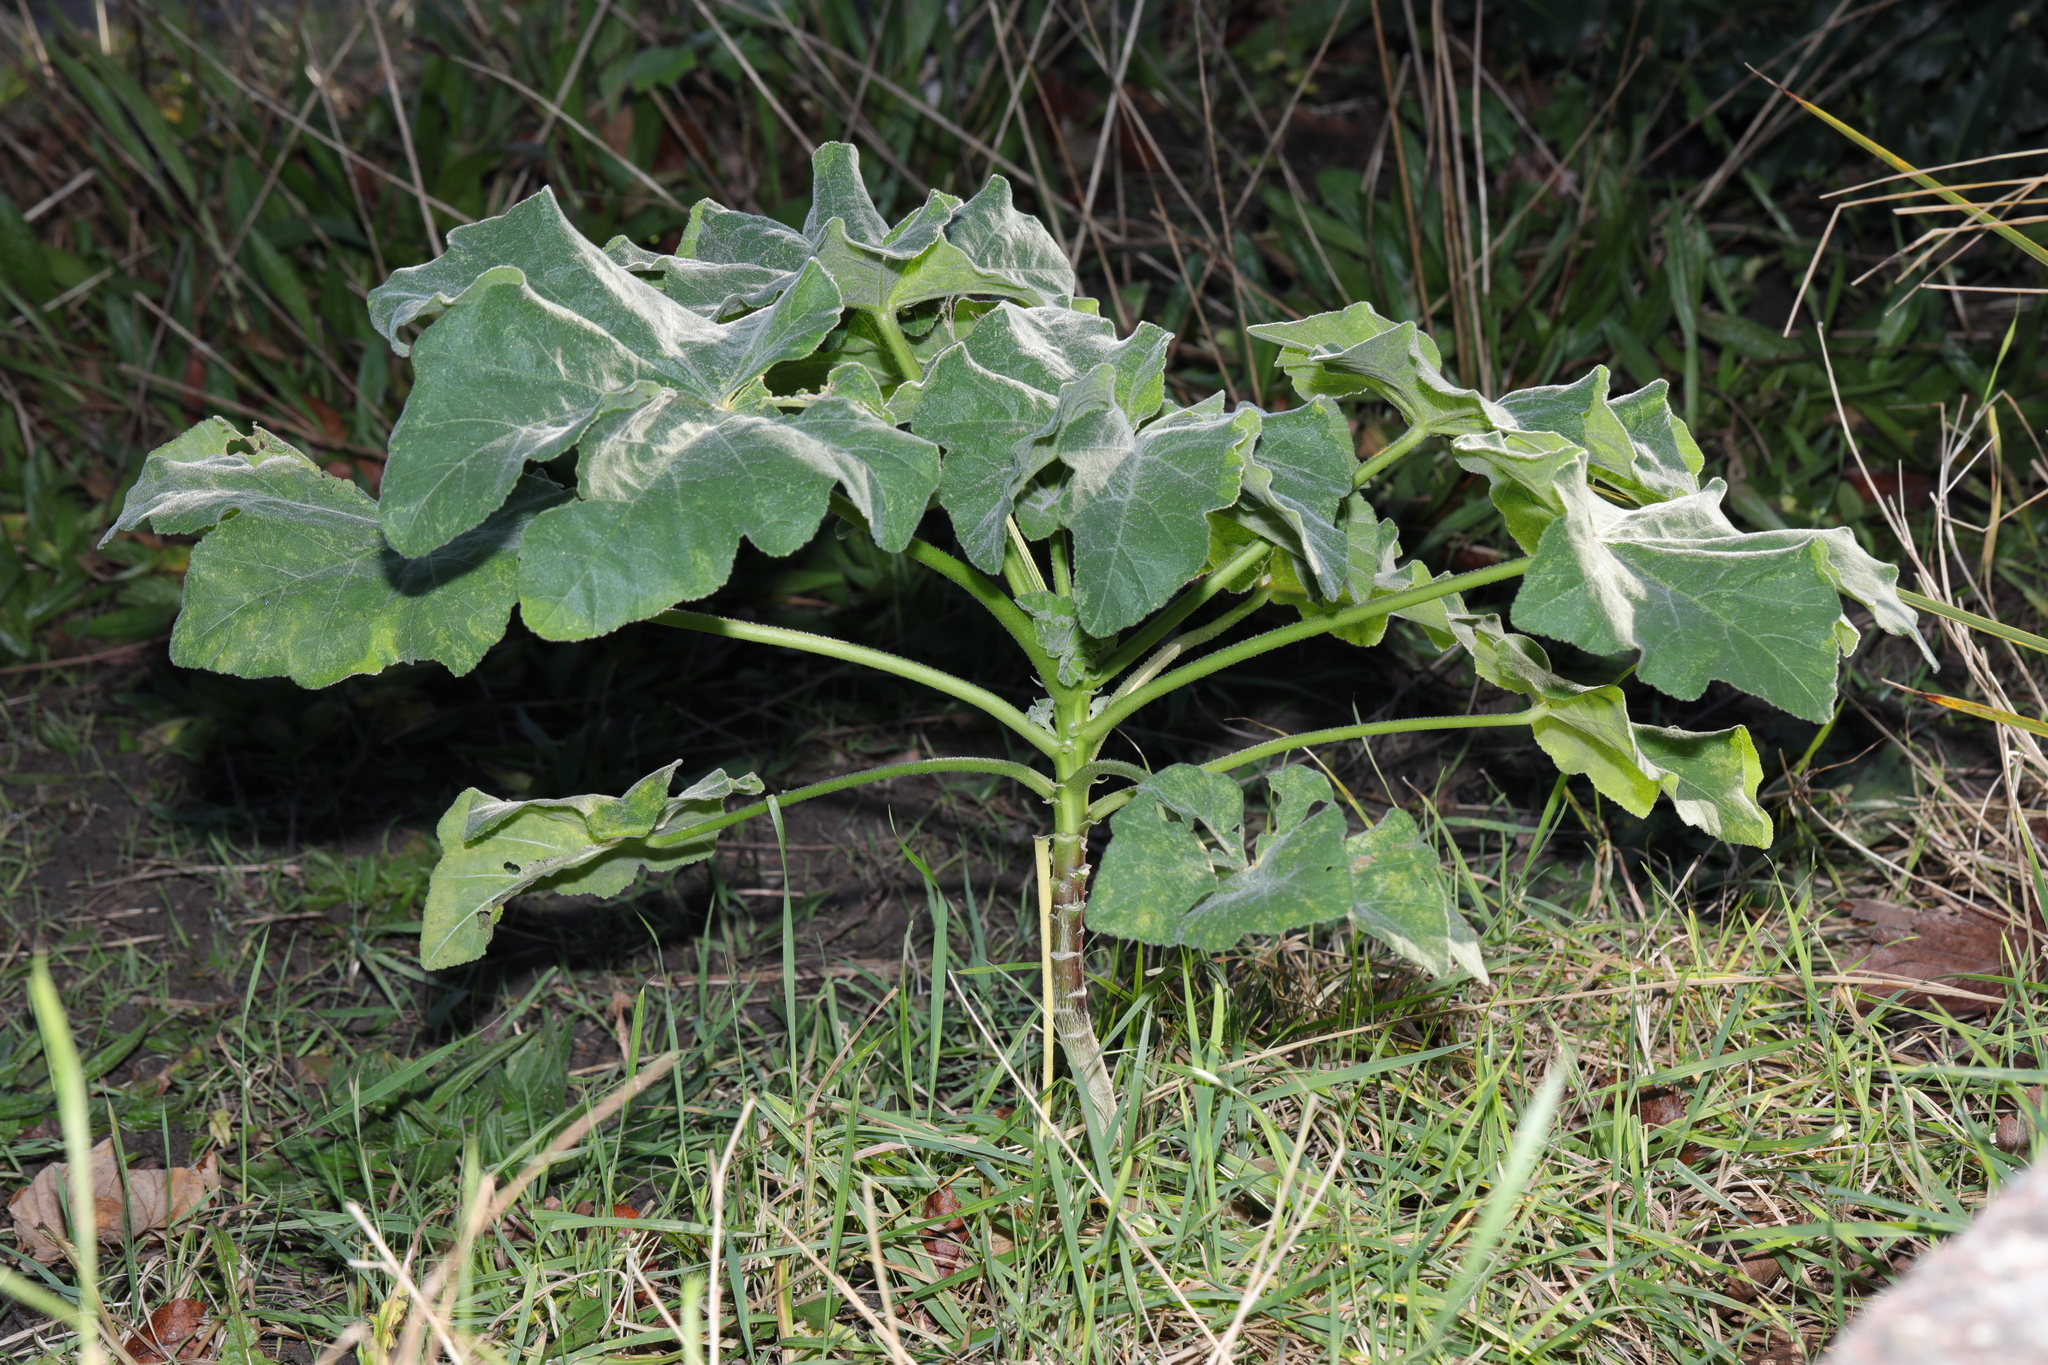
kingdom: Plantae
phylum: Tracheophyta
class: Magnoliopsida
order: Malvales
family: Malvaceae
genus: Malva
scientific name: Malva arborea
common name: Tree mallow
